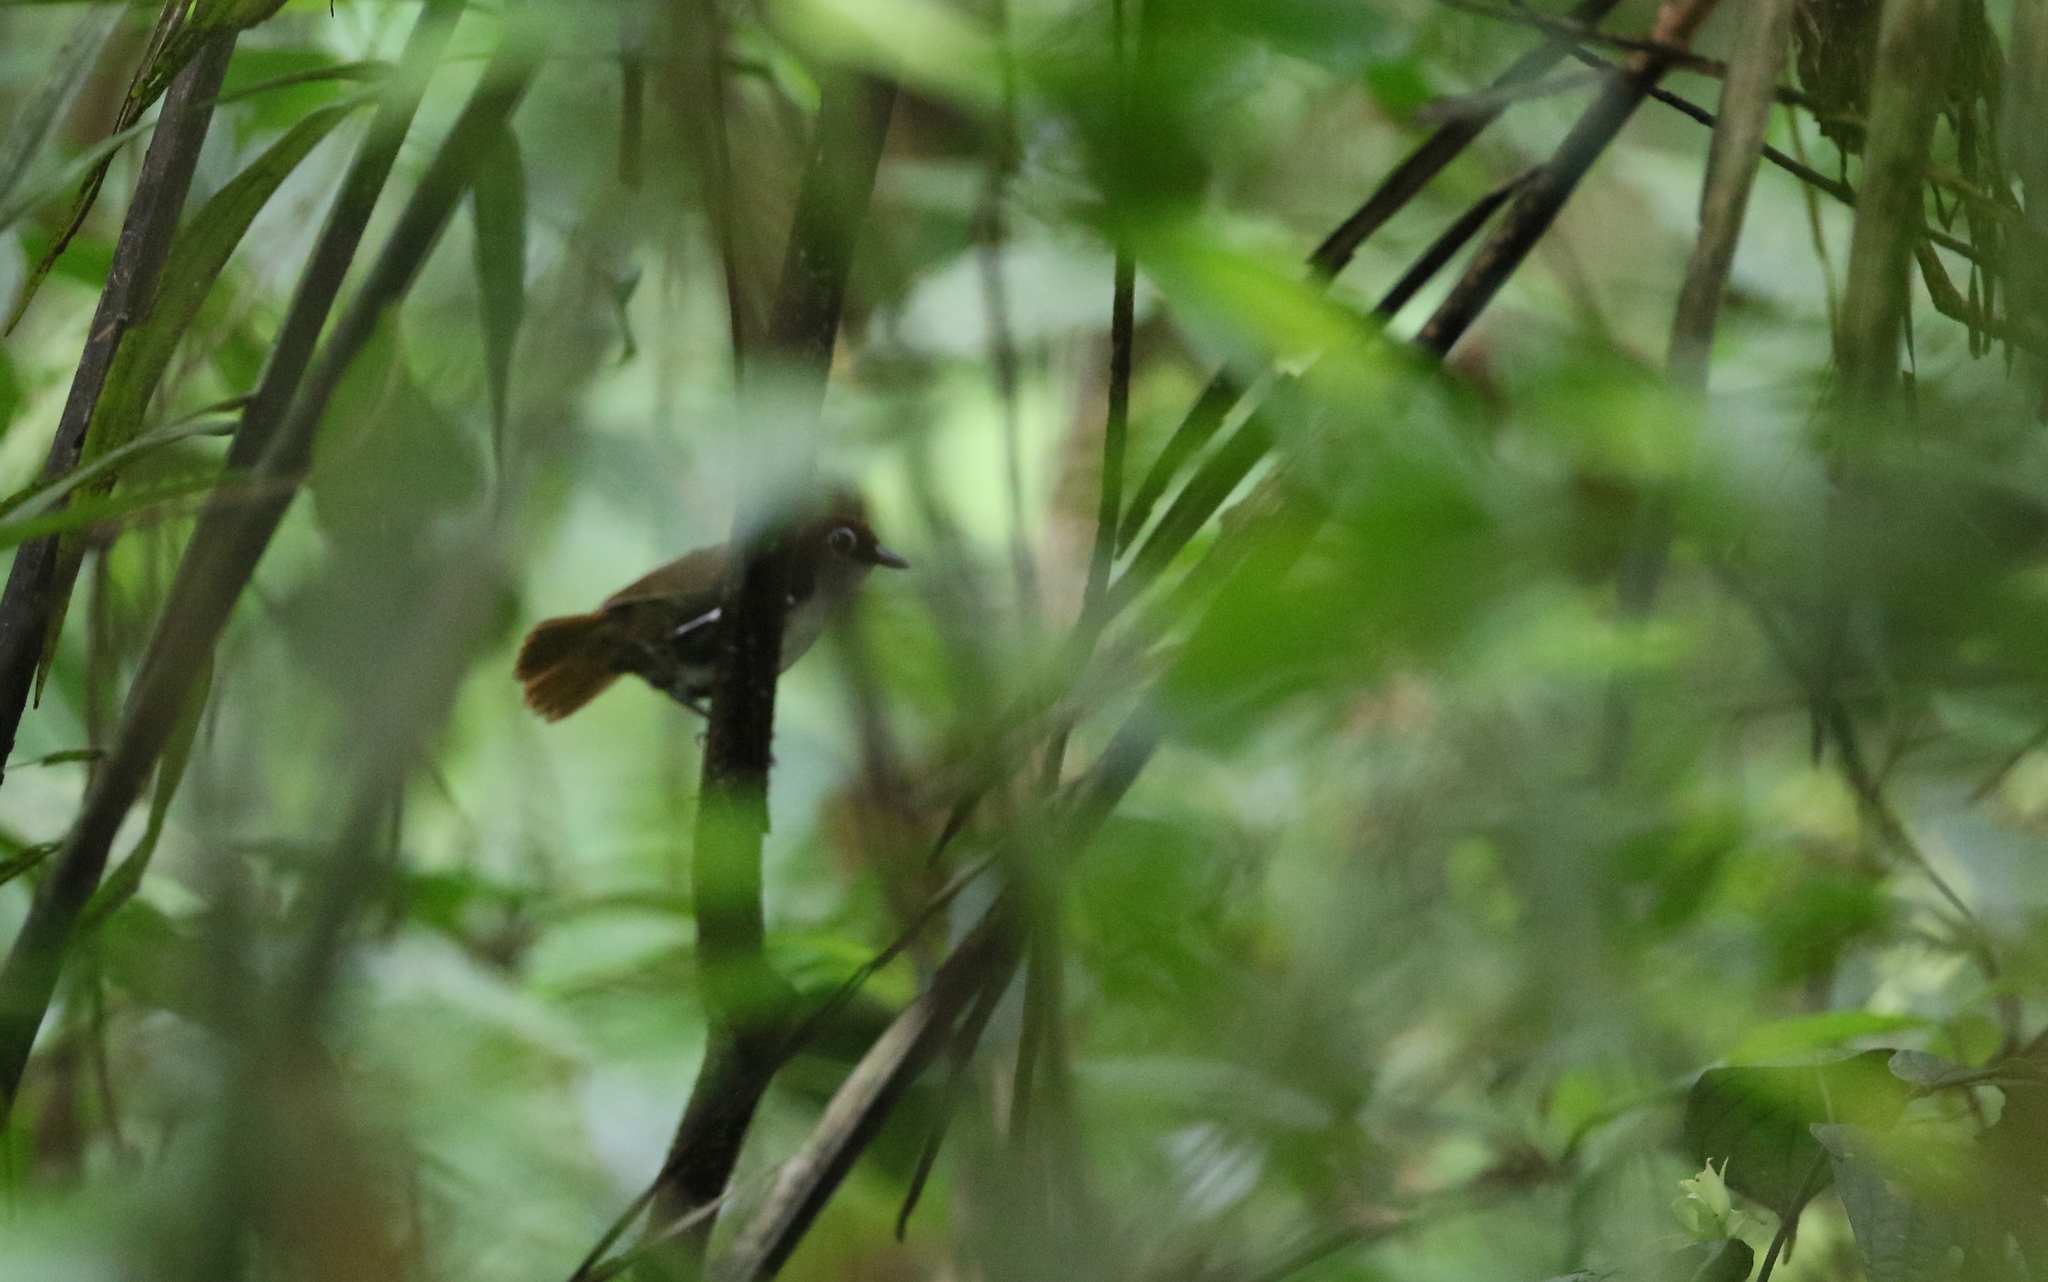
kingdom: Animalia
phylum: Chordata
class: Aves
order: Passeriformes
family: Thamnophilidae
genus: Gymnopithys
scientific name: Gymnopithys leucaspis
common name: White-cheeked antbird
